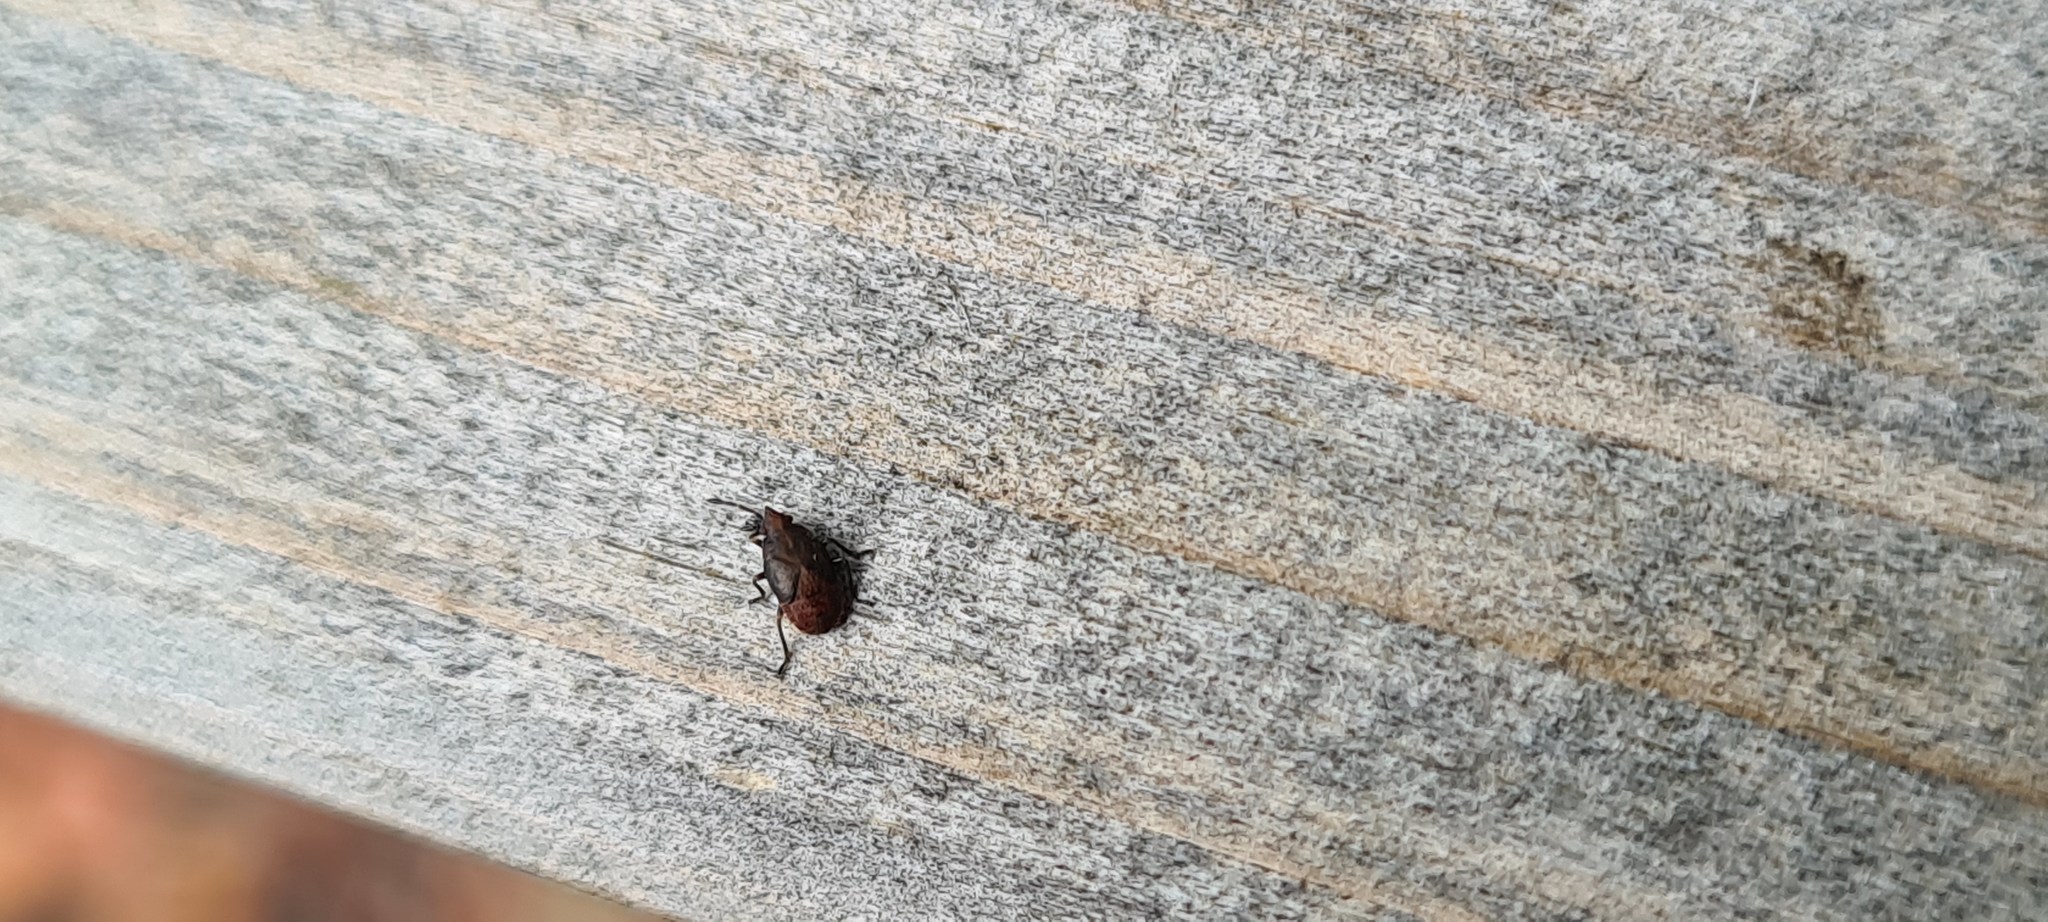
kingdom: Animalia
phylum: Arthropoda
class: Insecta
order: Hemiptera
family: Lygaeidae
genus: Kleidocerys
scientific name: Kleidocerys resedae
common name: Birch catkin bug
